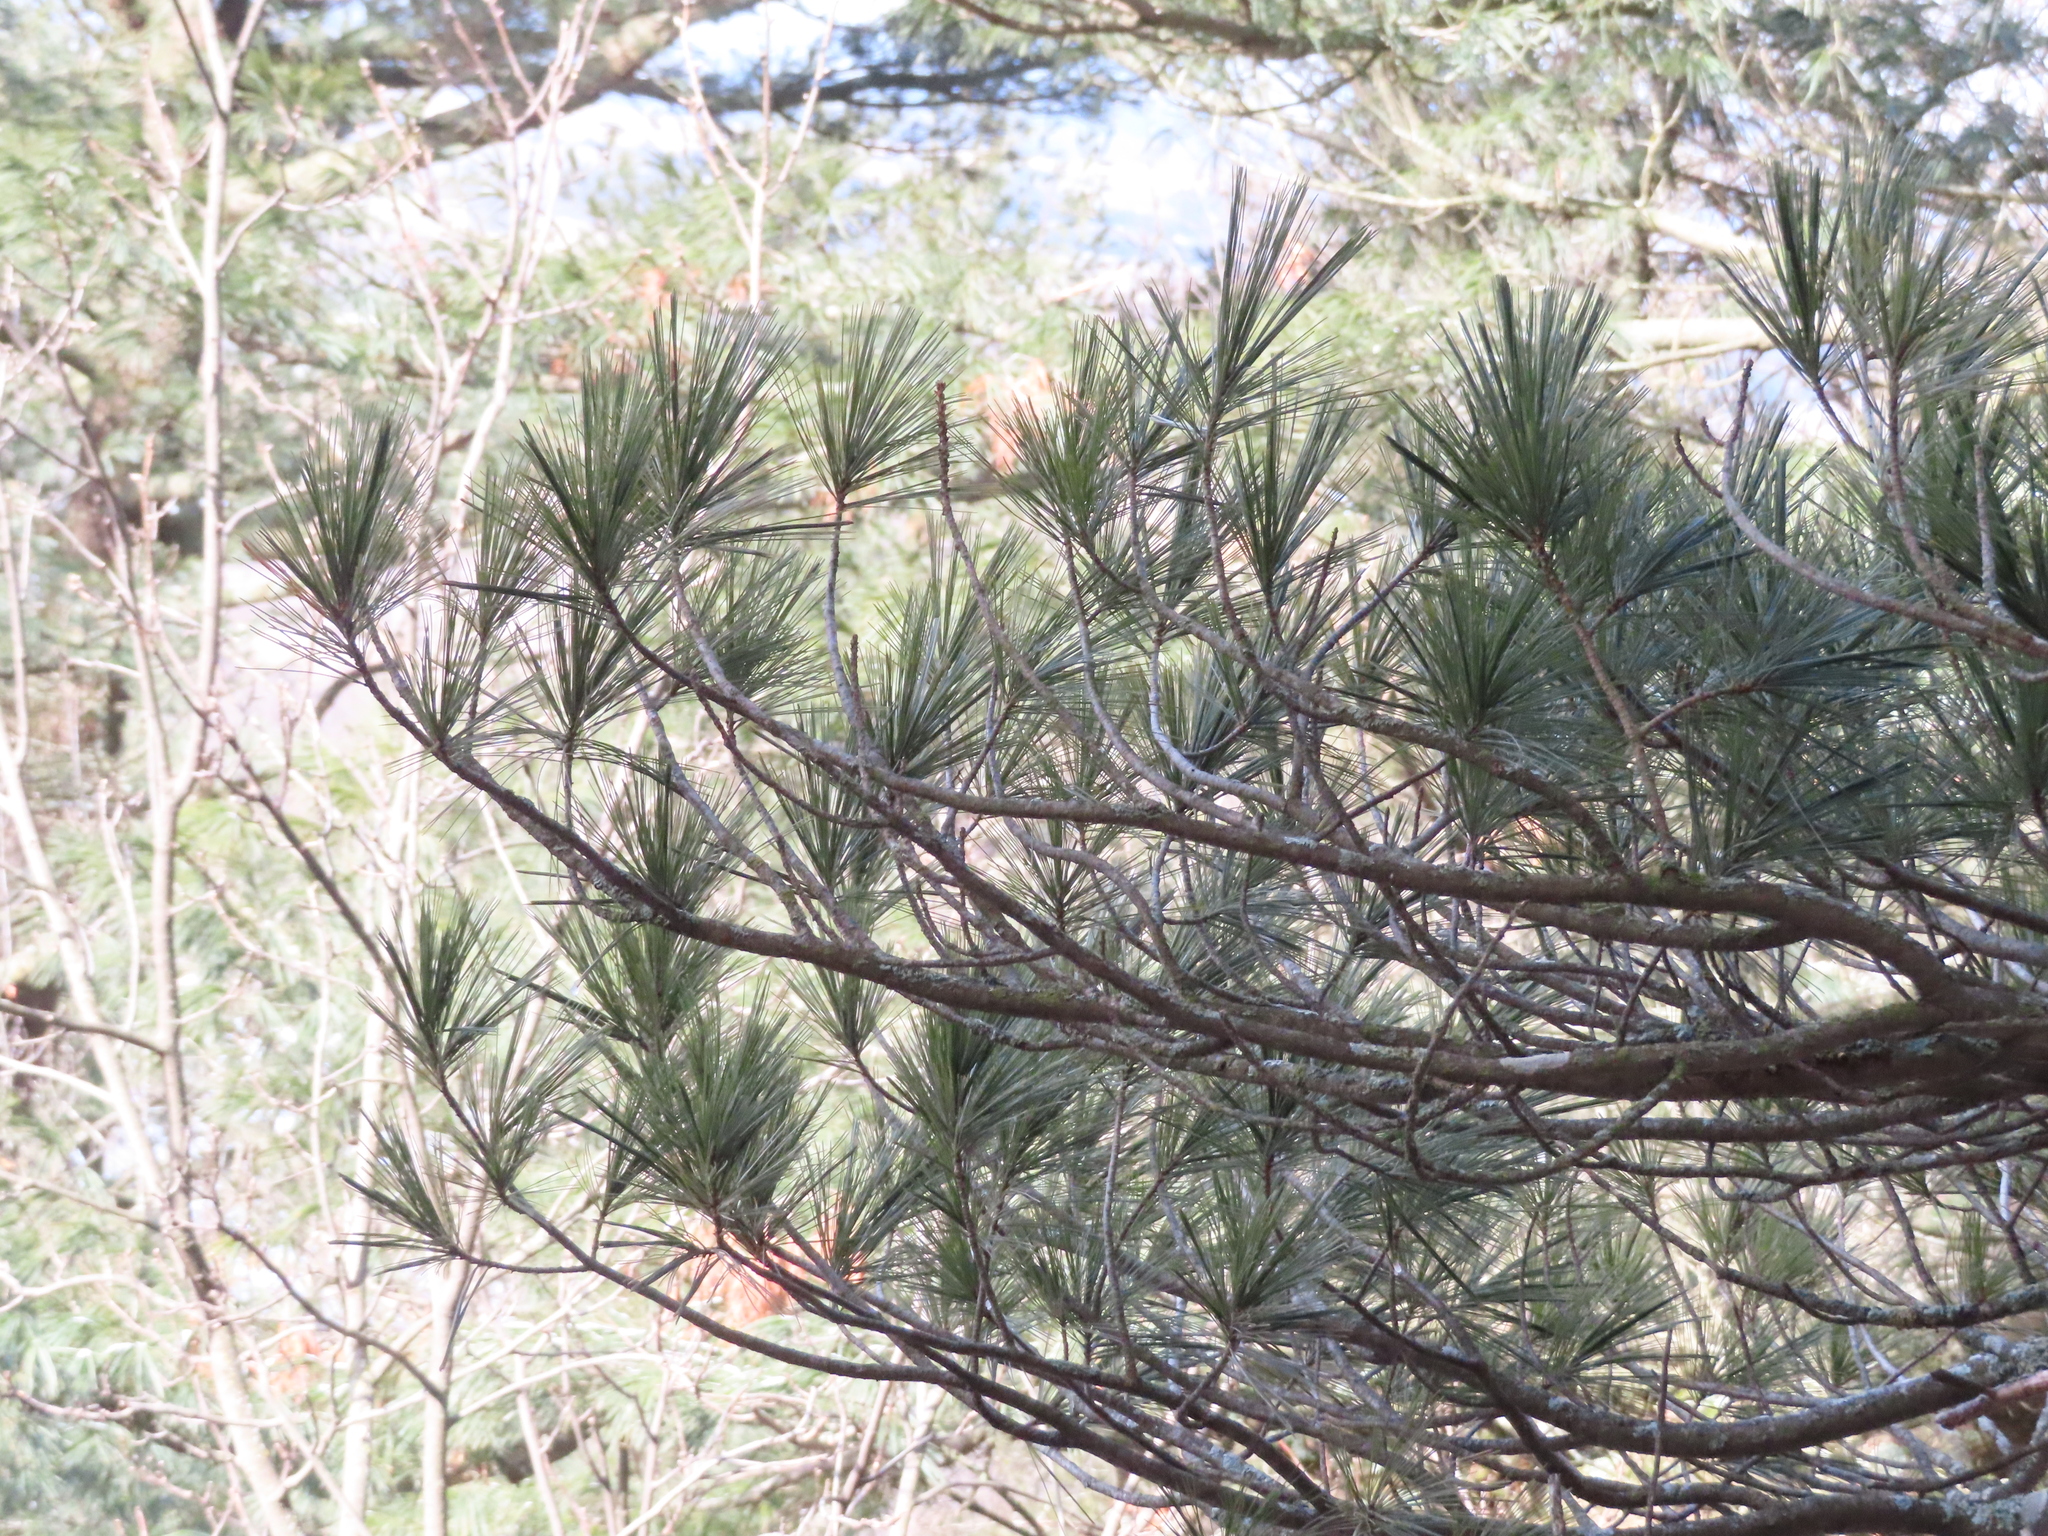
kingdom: Plantae
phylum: Tracheophyta
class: Pinopsida
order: Pinales
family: Pinaceae
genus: Pinus
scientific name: Pinus strobus
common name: Weymouth pine
